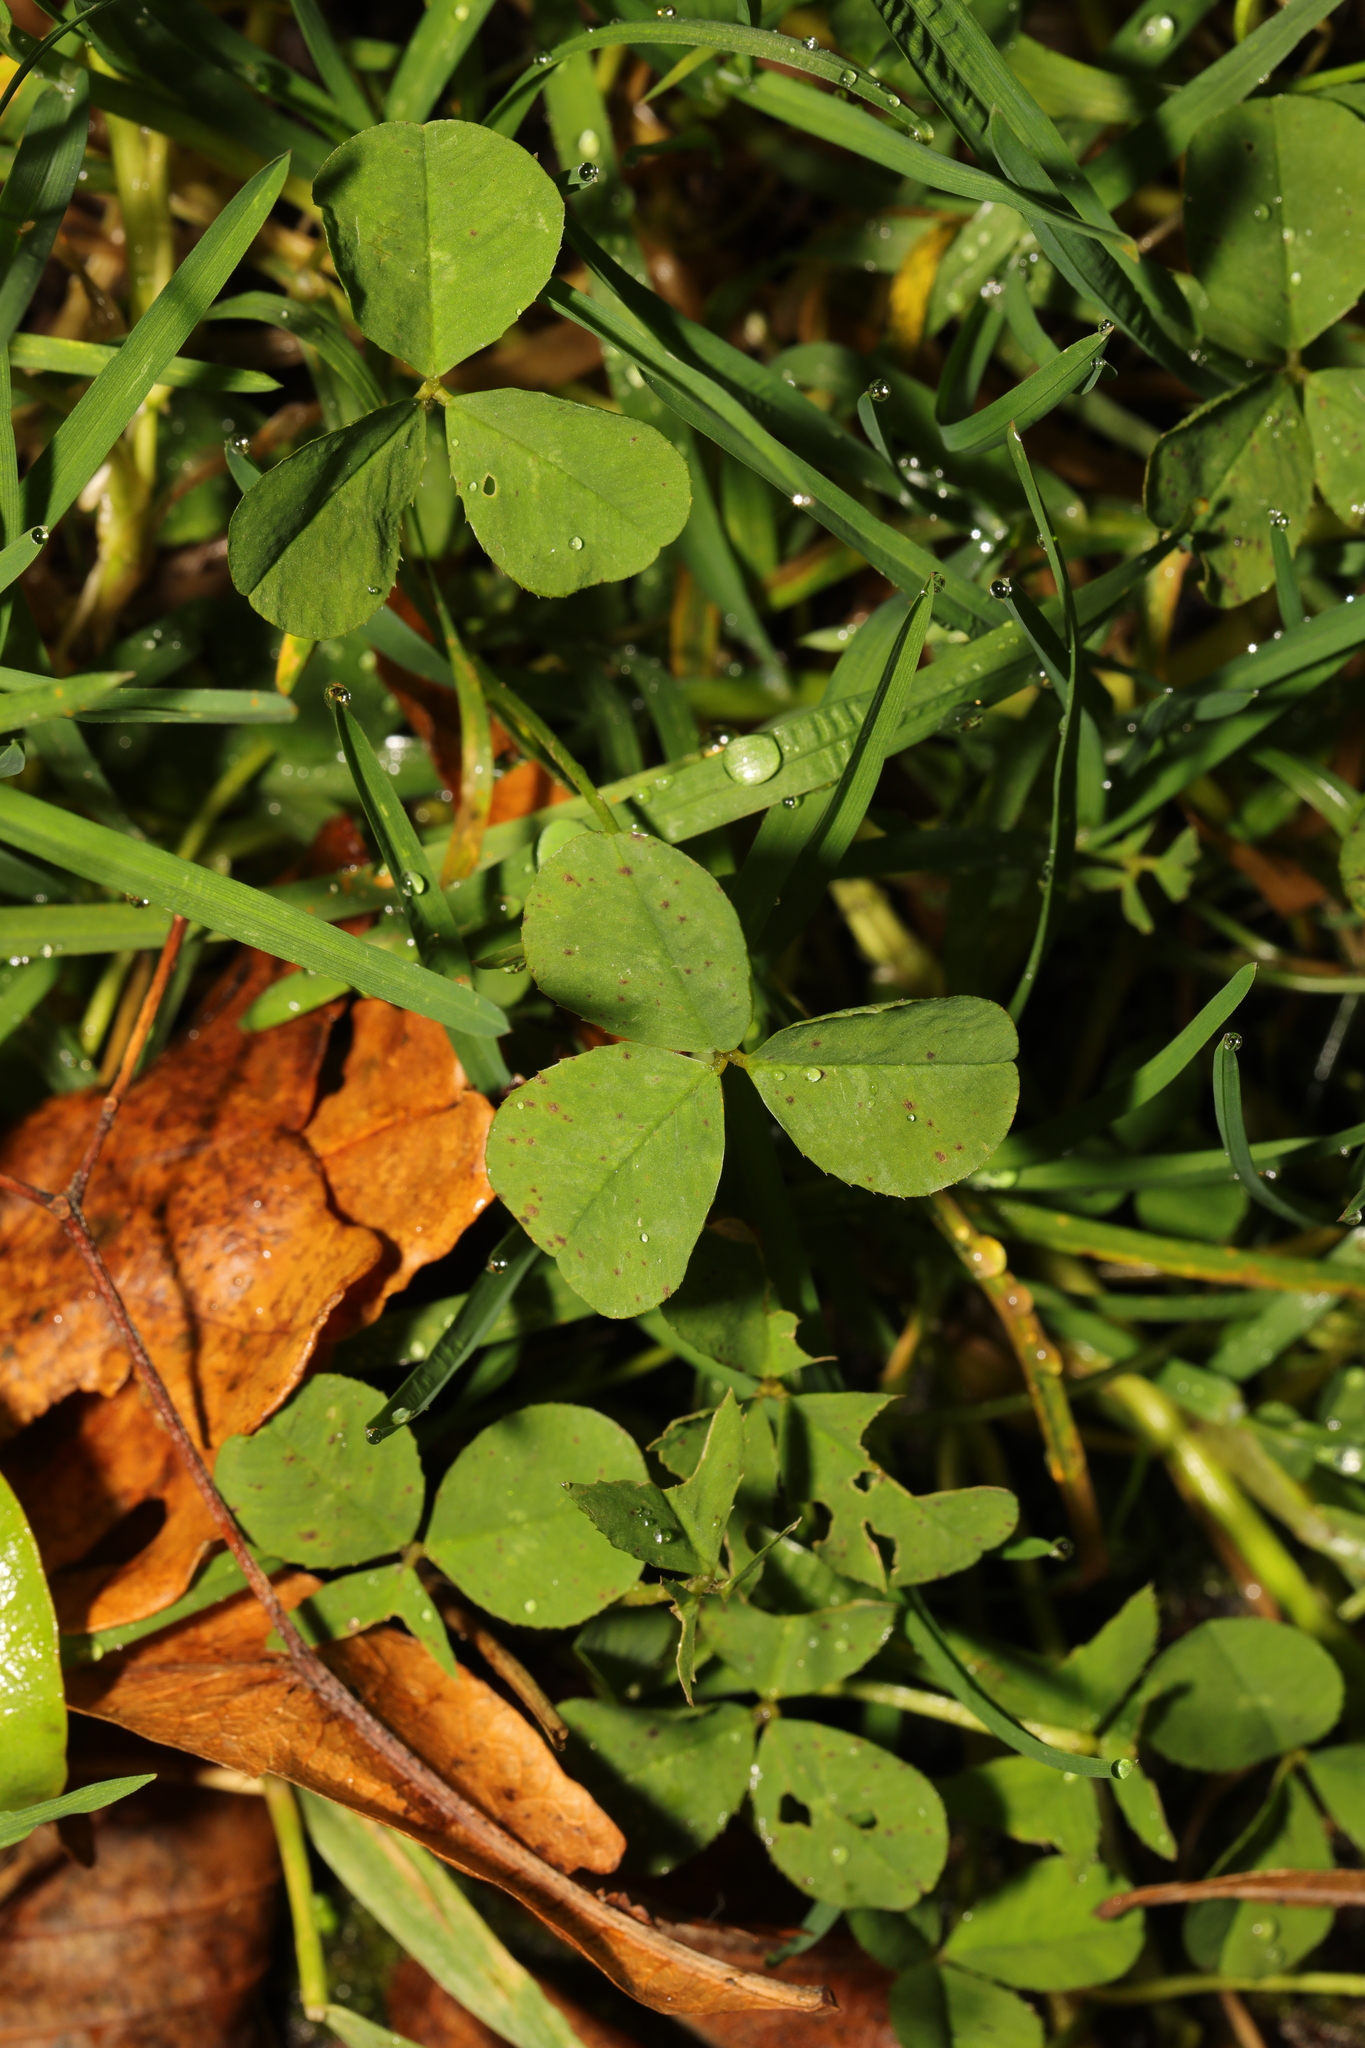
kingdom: Plantae
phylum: Tracheophyta
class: Magnoliopsida
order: Fabales
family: Fabaceae
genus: Trifolium
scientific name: Trifolium repens
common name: White clover
